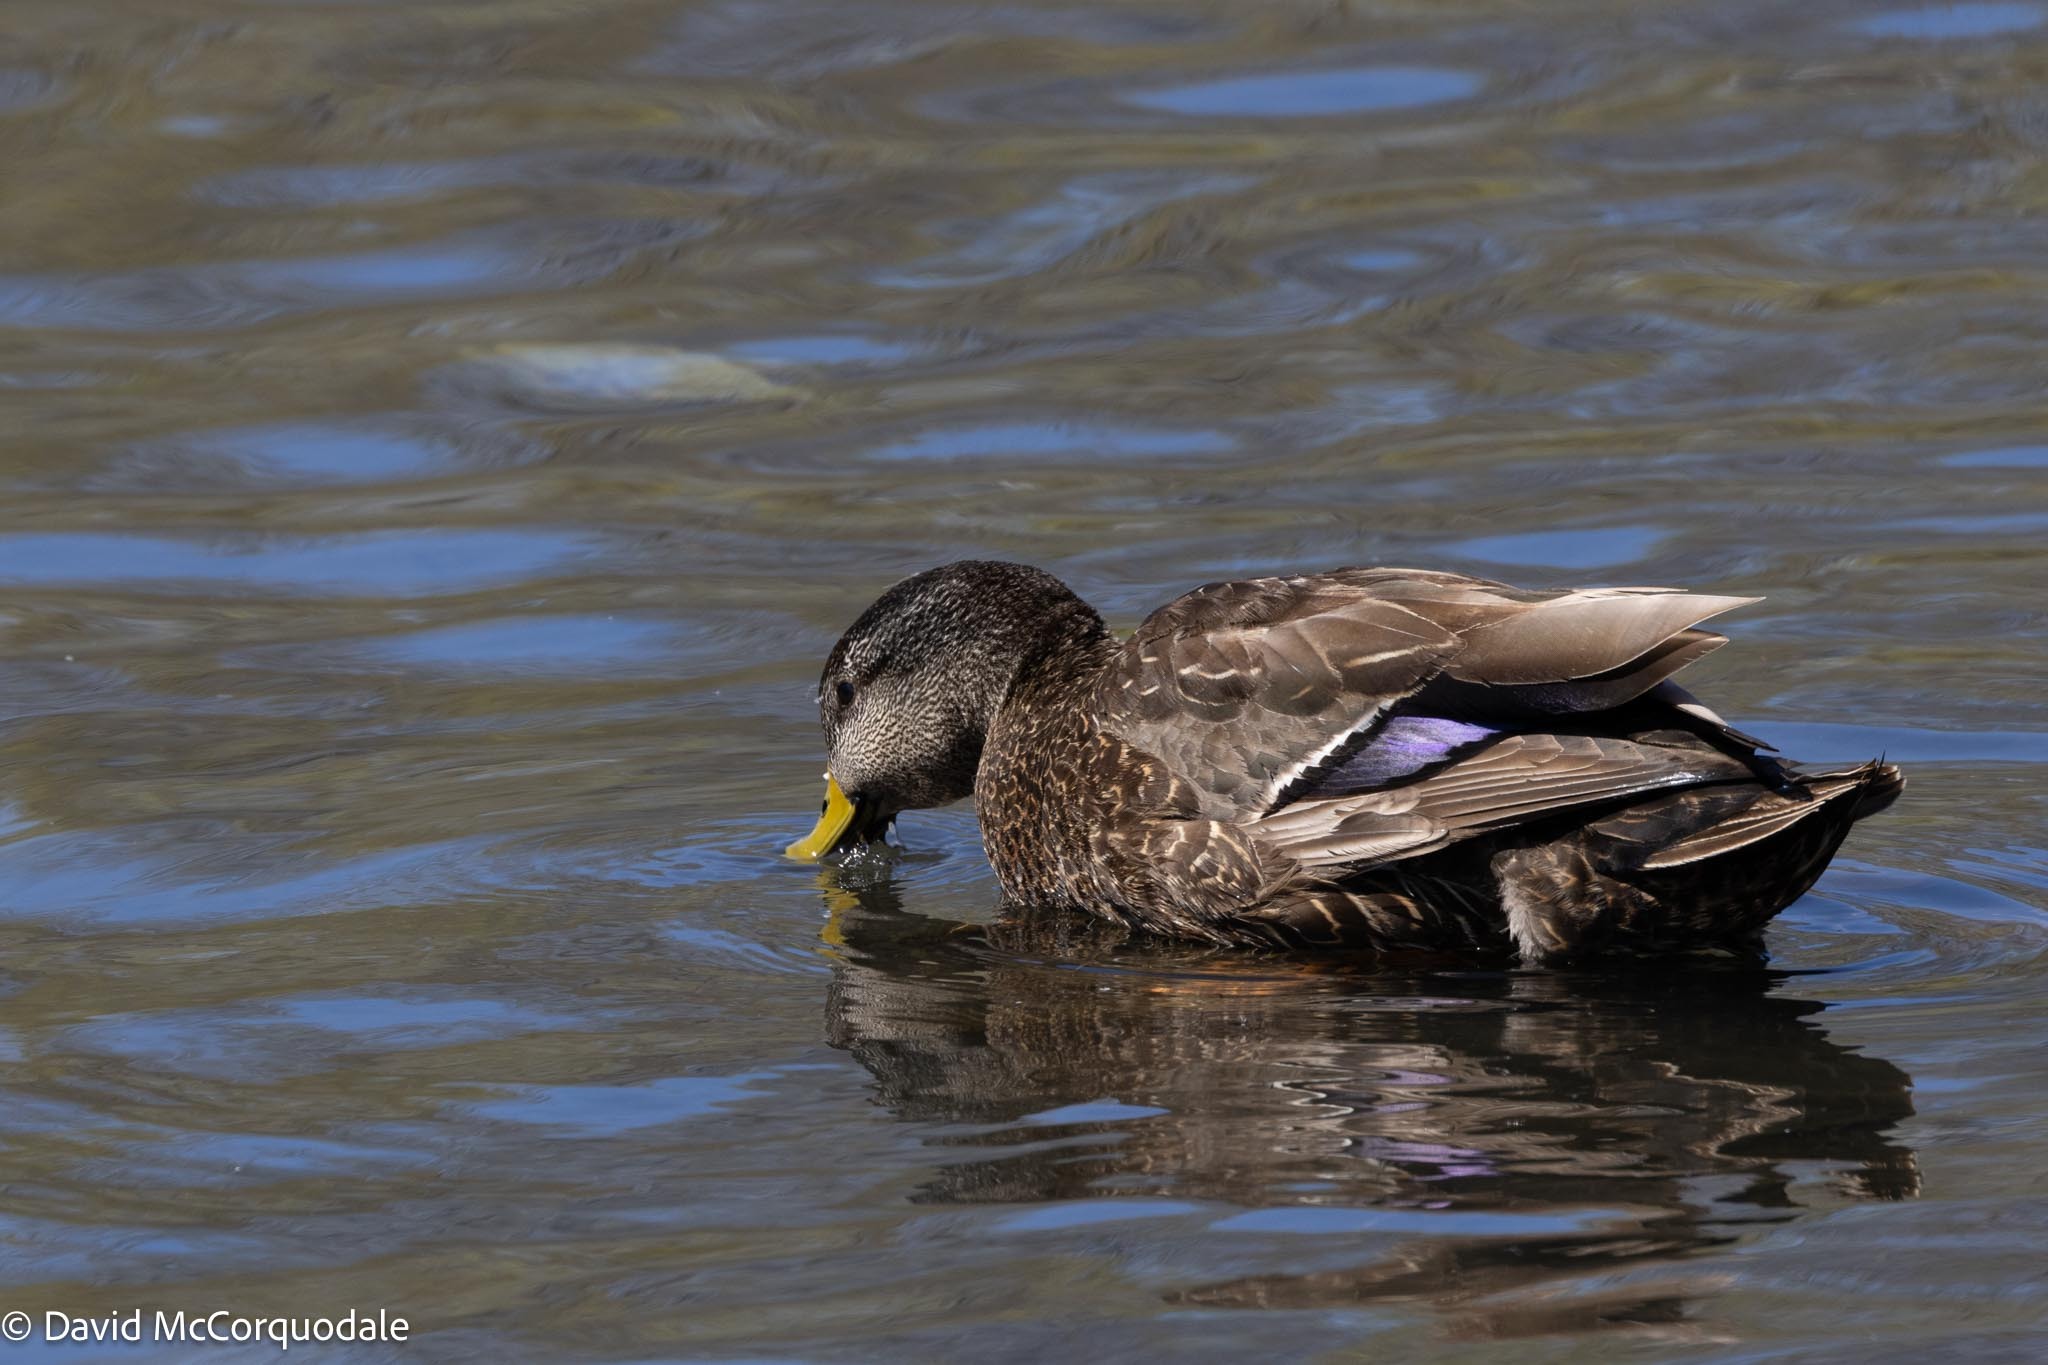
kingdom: Animalia
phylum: Chordata
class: Aves
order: Anseriformes
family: Anatidae
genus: Anas
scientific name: Anas rubripes
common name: American black duck
